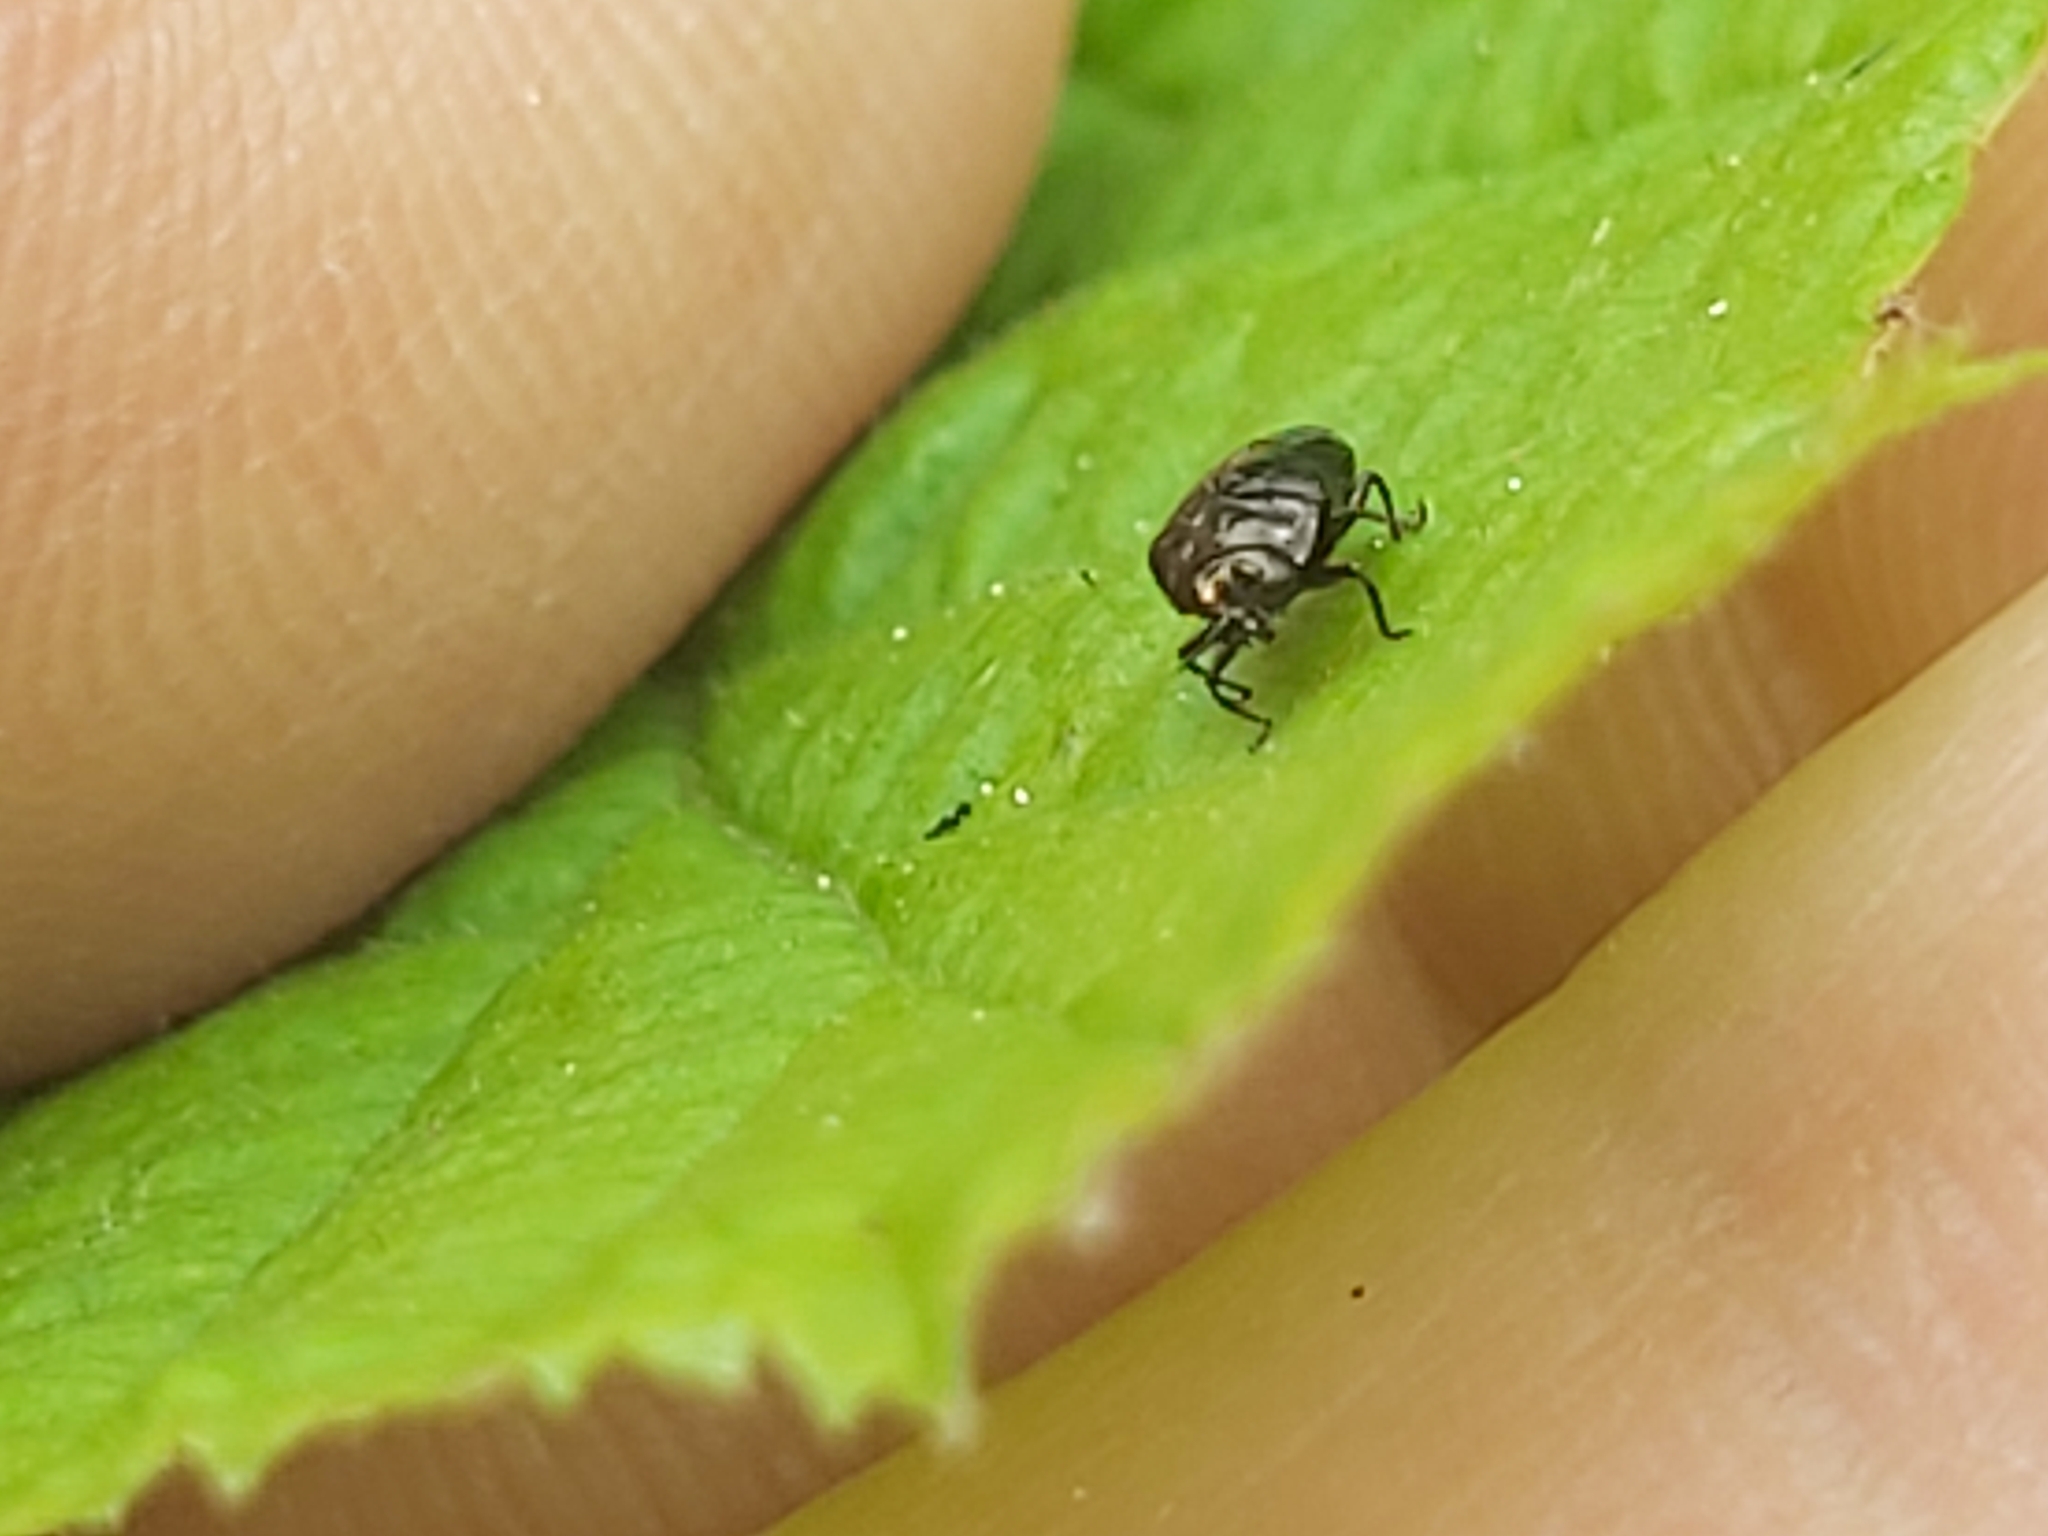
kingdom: Animalia
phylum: Arthropoda
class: Insecta
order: Coleoptera
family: Buprestidae
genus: Trachys
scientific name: Trachys minutus
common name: Metallic wood-boring beetle
